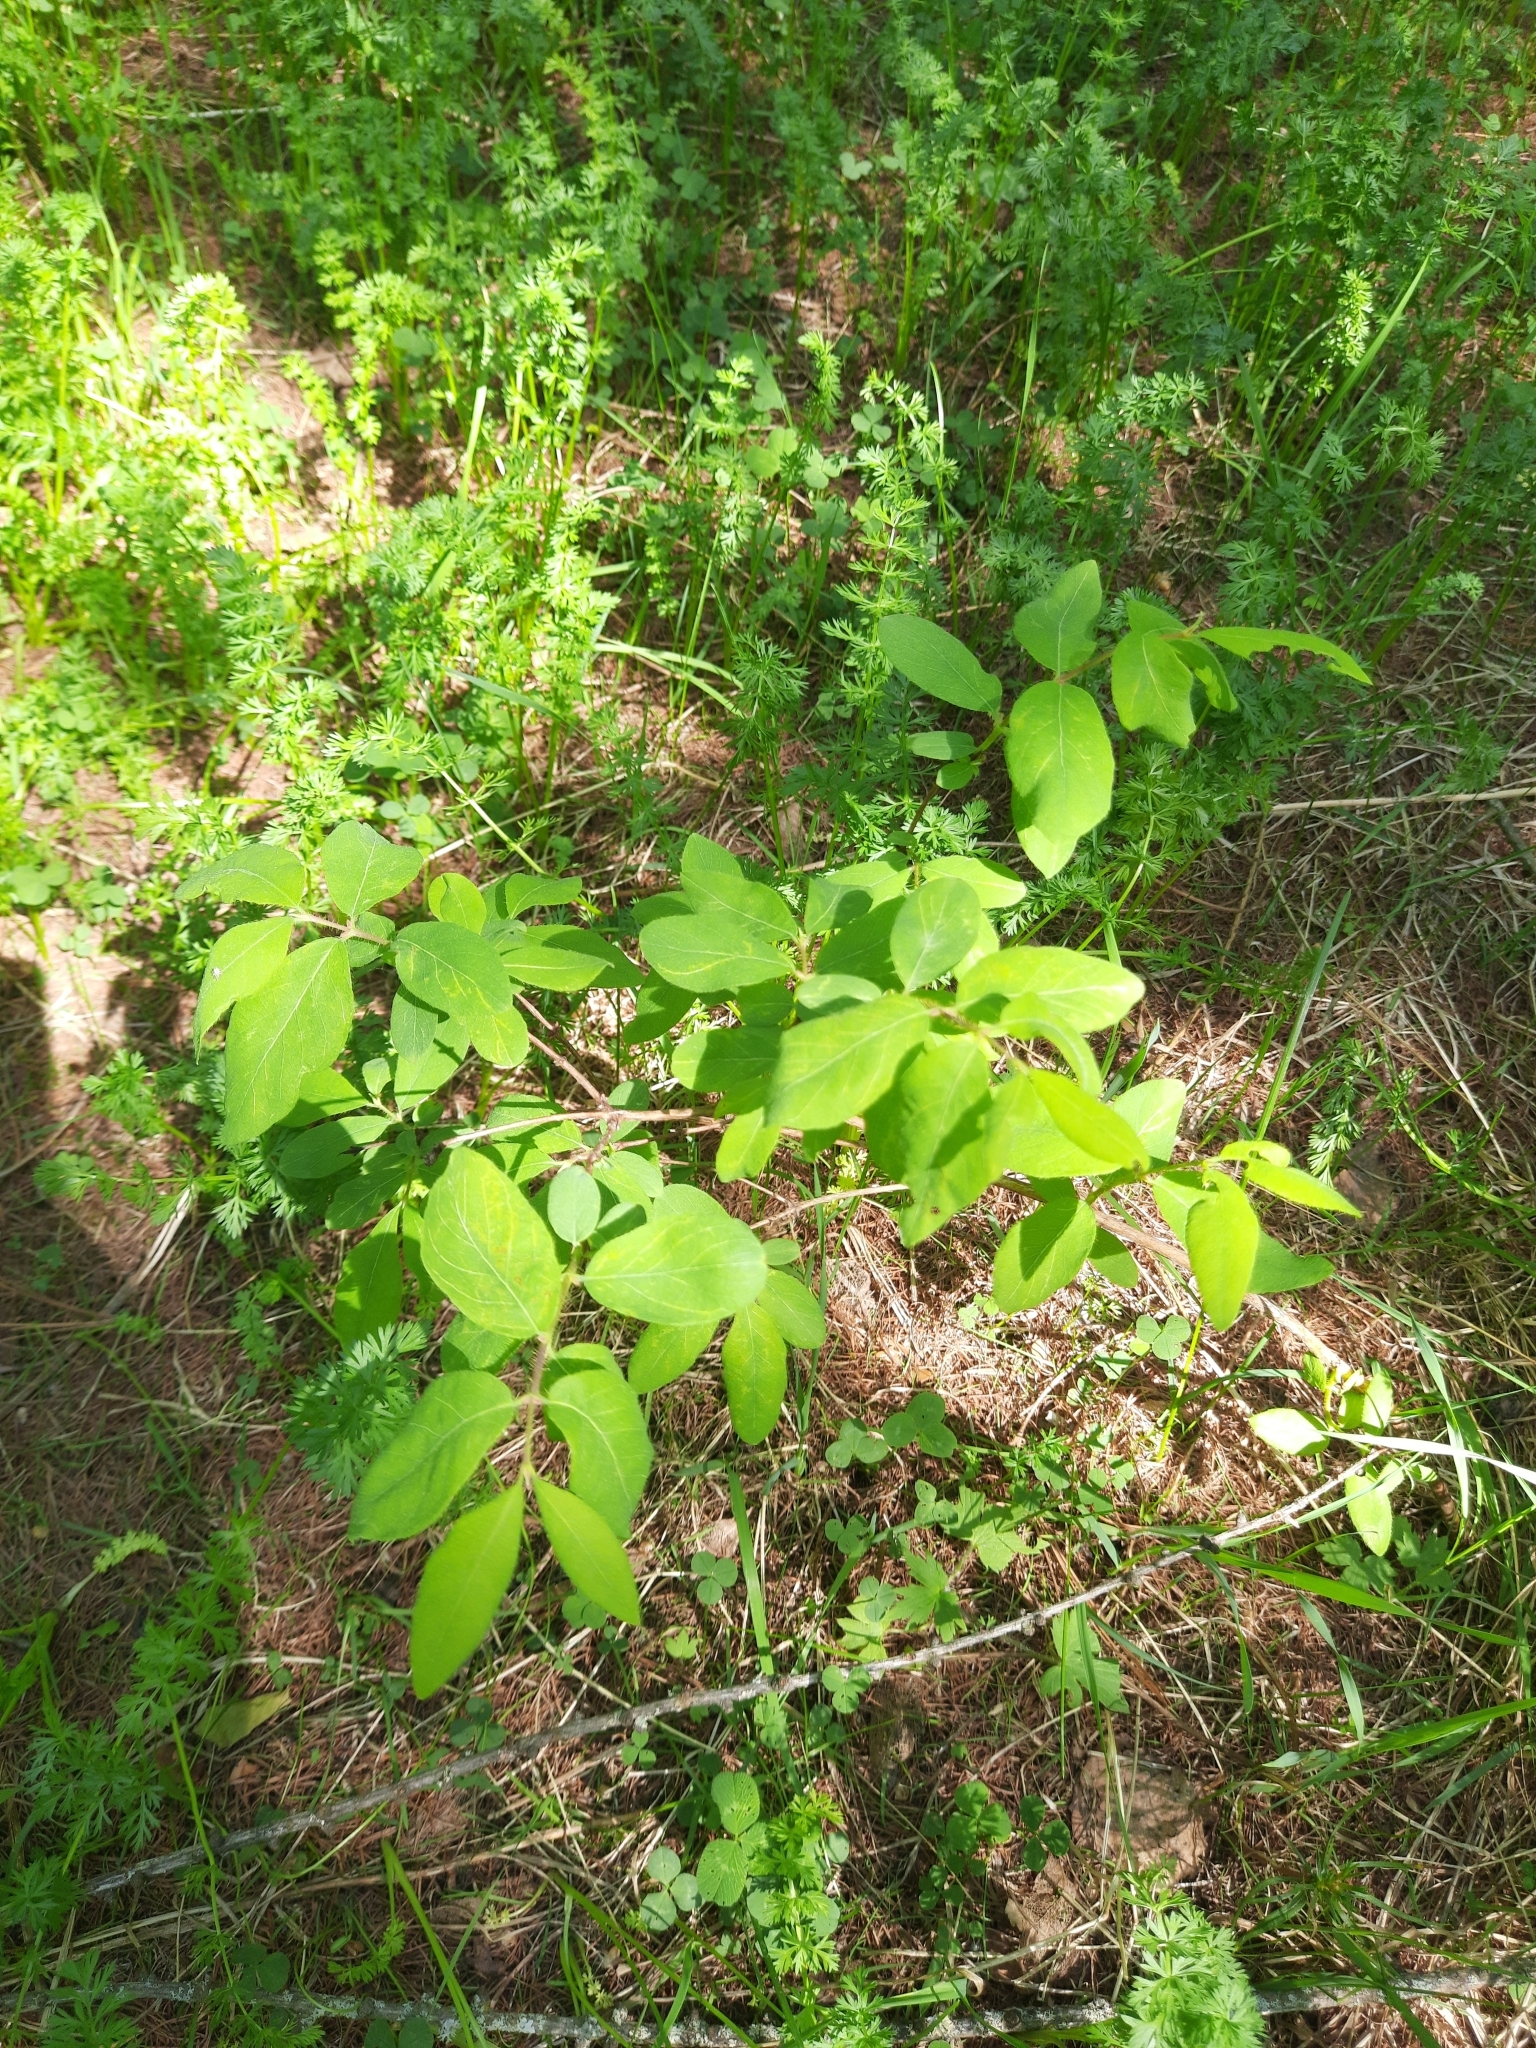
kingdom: Plantae
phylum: Tracheophyta
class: Magnoliopsida
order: Dipsacales
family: Caprifoliaceae
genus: Lonicera
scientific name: Lonicera caerulea
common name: Blue honeysuckle
